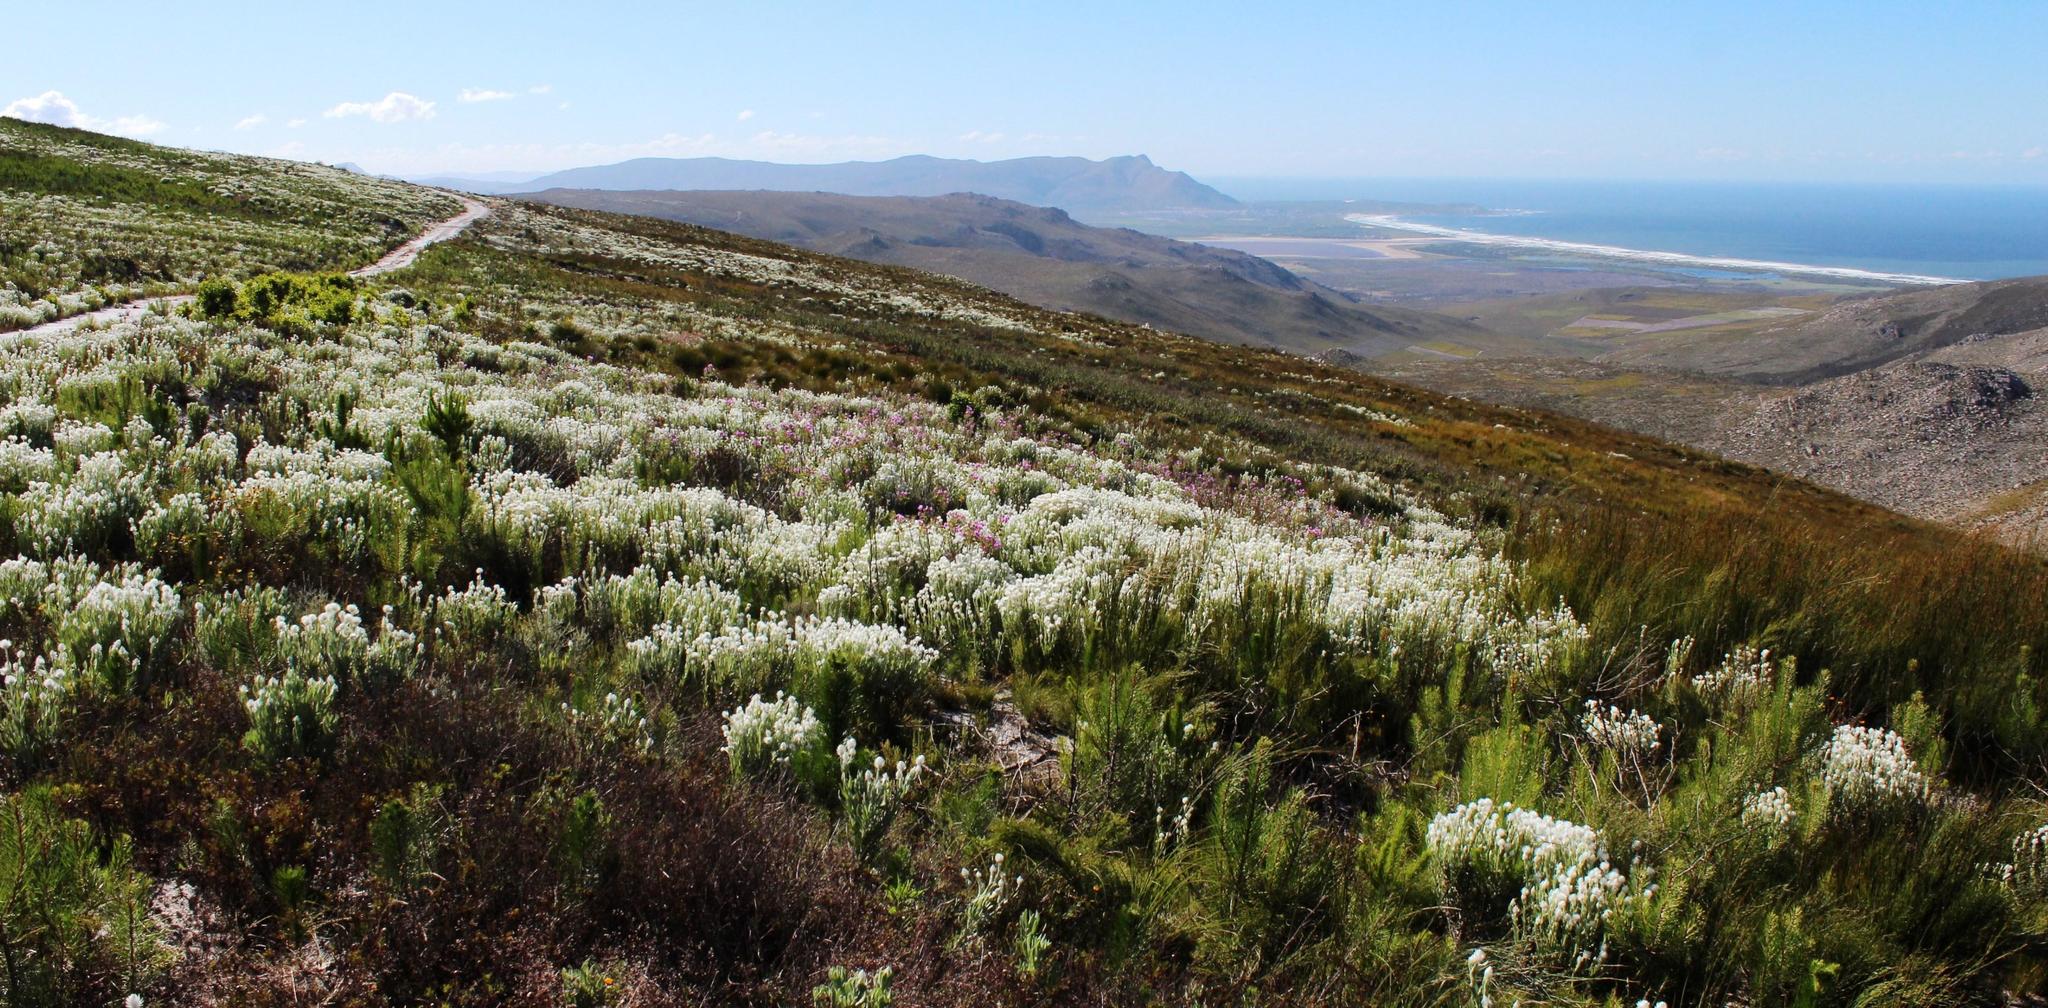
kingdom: Plantae
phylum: Tracheophyta
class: Magnoliopsida
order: Asterales
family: Asteraceae
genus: Syncarpha
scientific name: Syncarpha vestita
